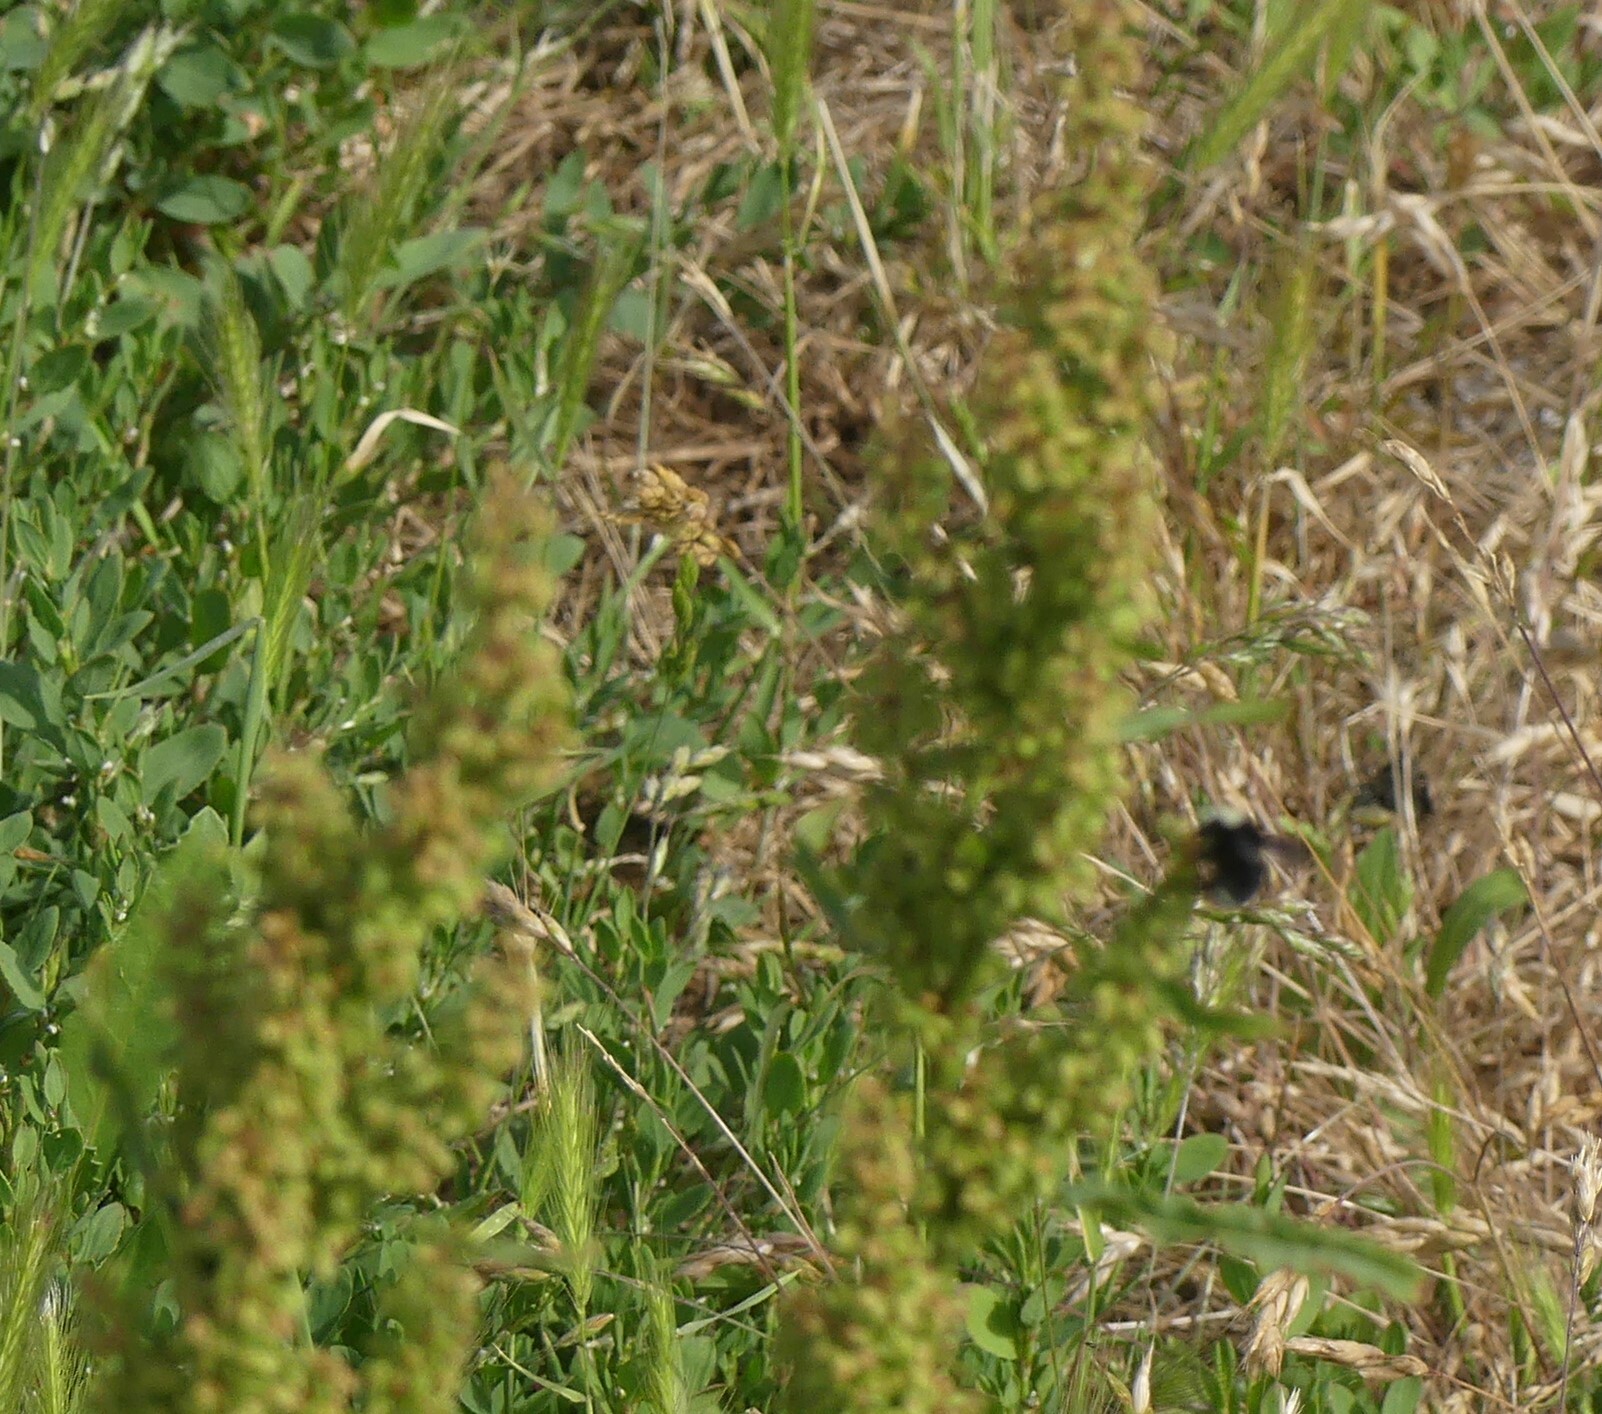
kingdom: Animalia
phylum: Arthropoda
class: Insecta
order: Hymenoptera
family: Apidae
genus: Bombus
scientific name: Bombus vosnesenskii
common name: Vosnesensky bumble bee
